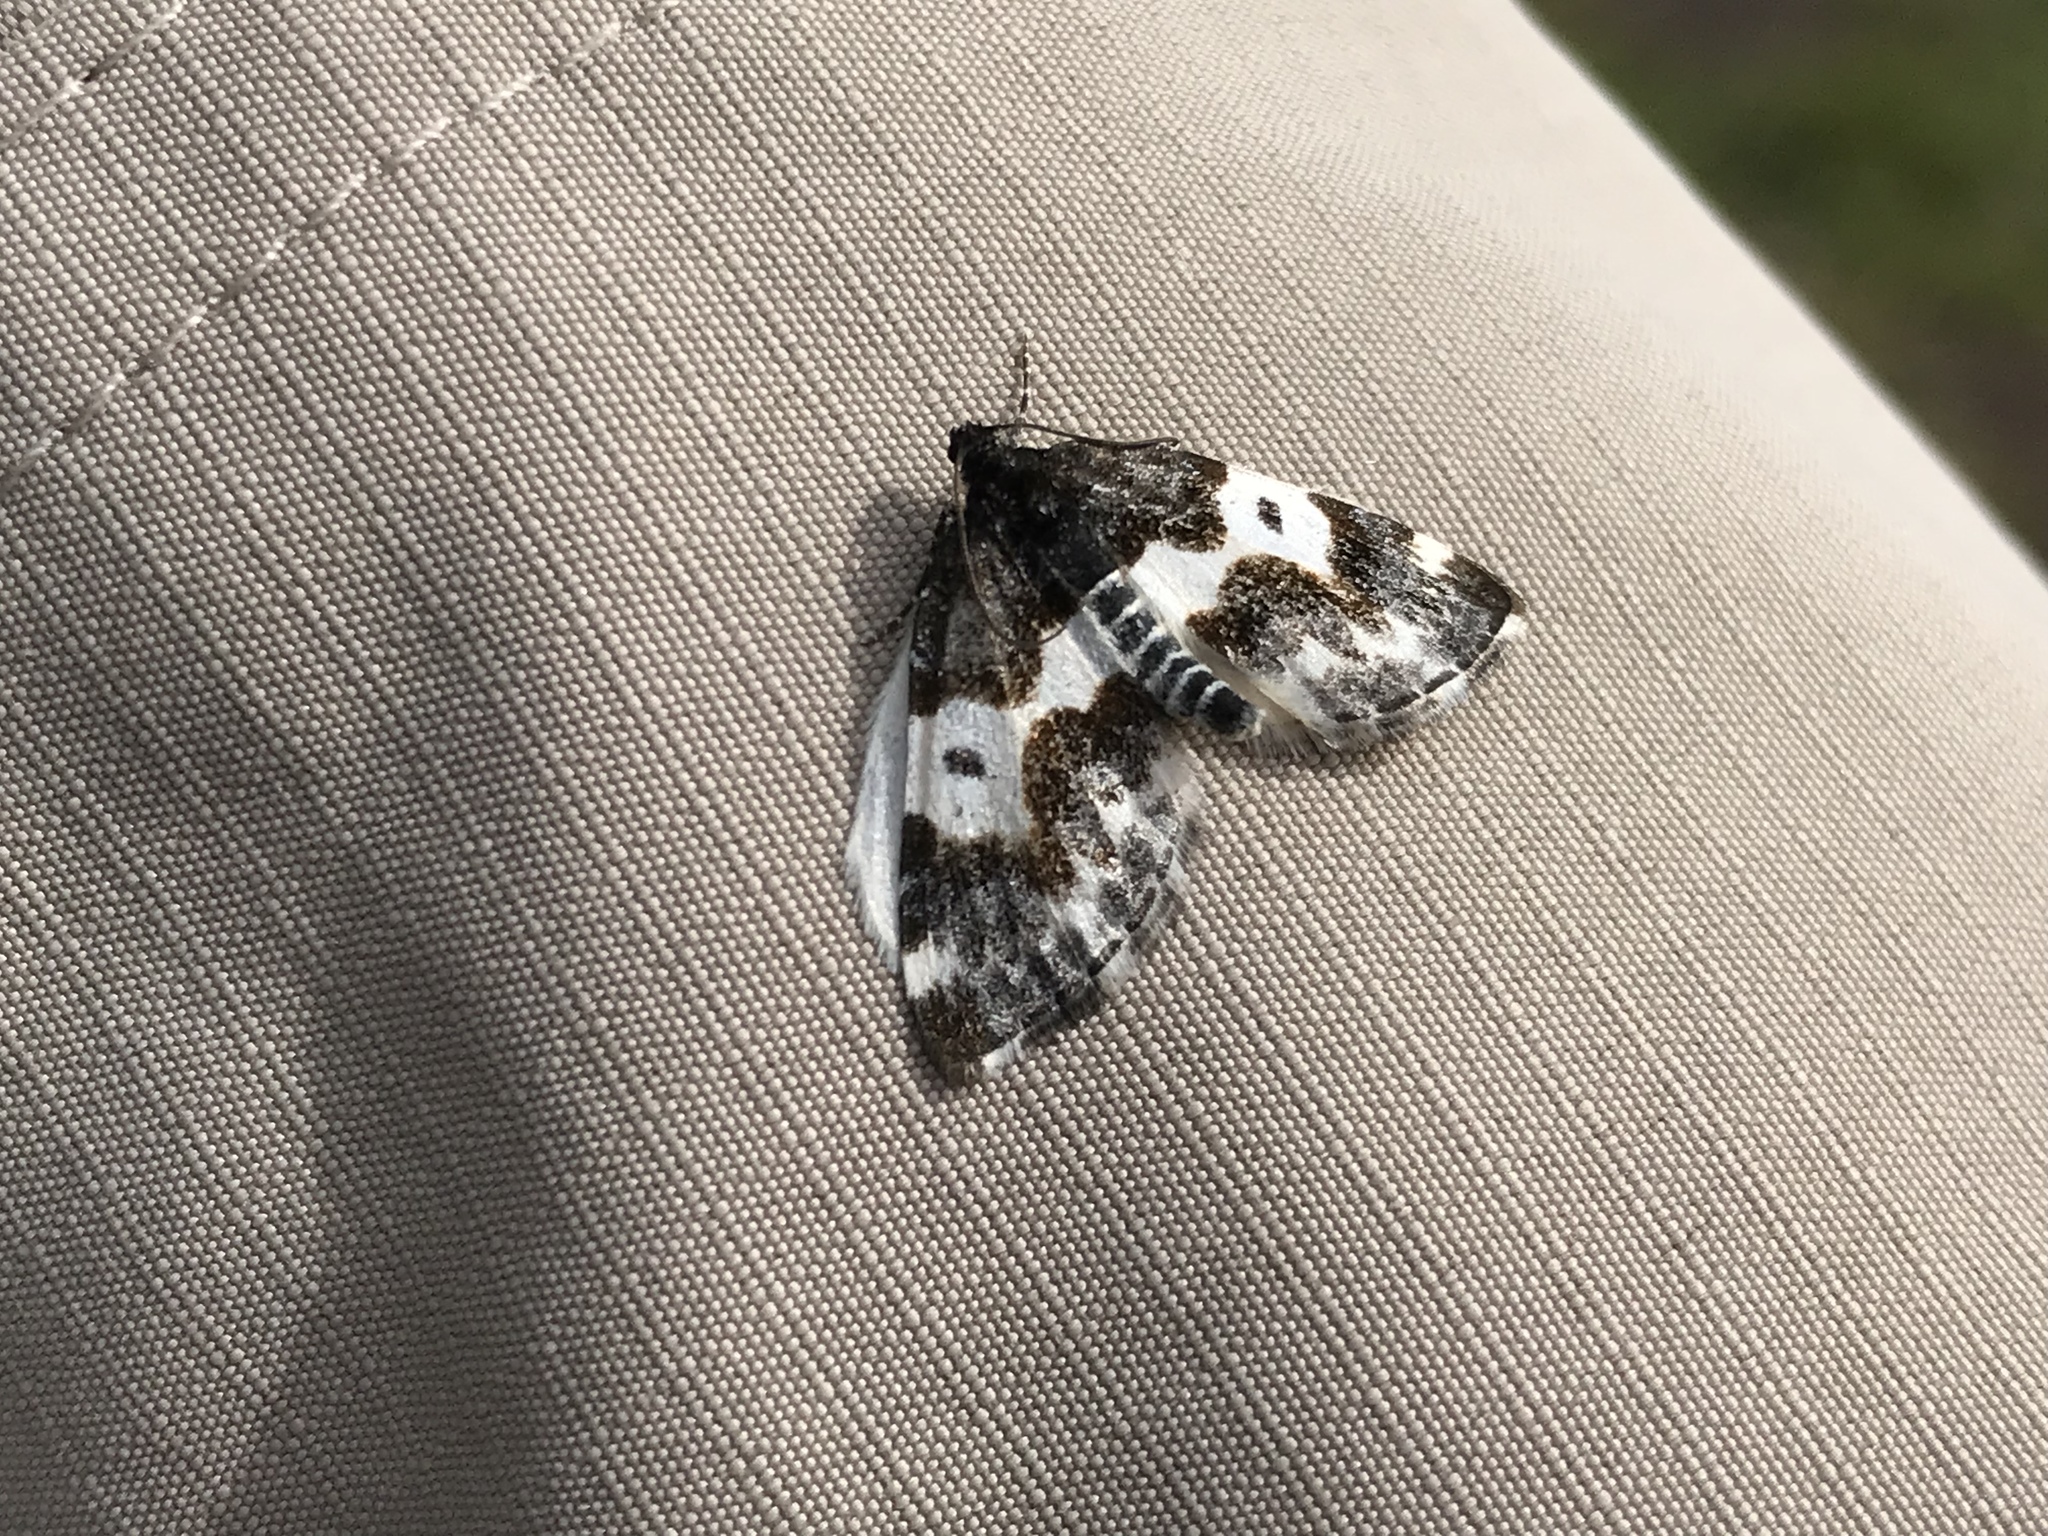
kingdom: Animalia
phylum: Arthropoda
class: Insecta
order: Lepidoptera
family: Geometridae
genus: Mesoleuca
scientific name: Mesoleuca gratulata
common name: Half-white carpet moth
